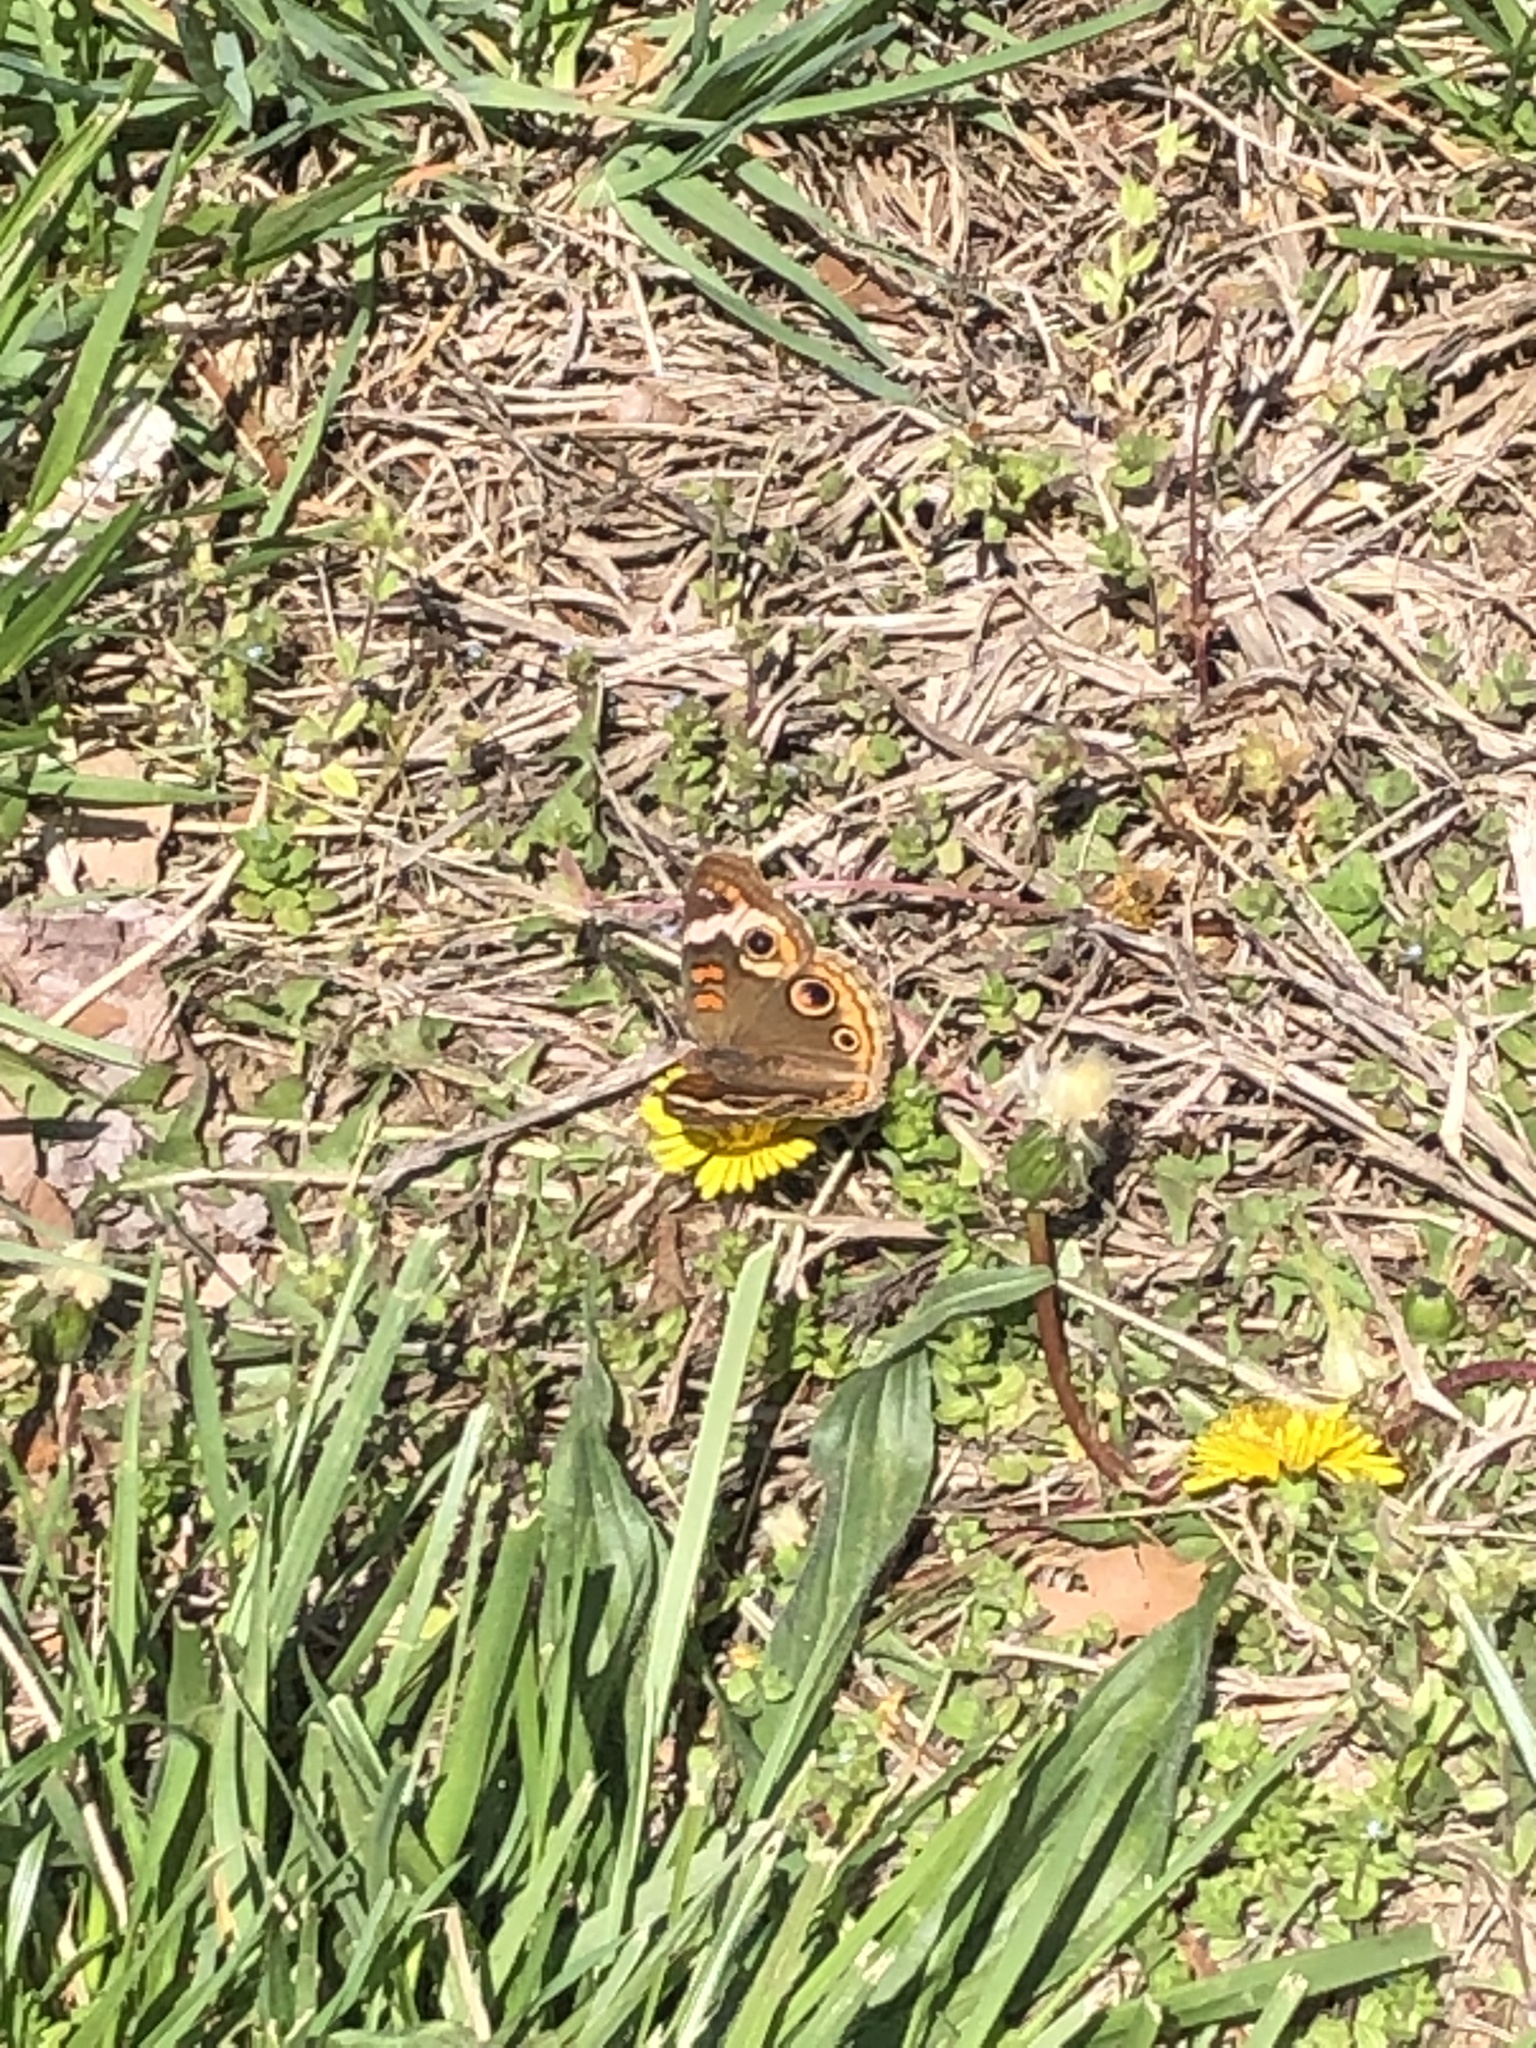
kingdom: Animalia
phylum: Arthropoda
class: Insecta
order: Lepidoptera
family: Nymphalidae
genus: Junonia
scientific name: Junonia coenia
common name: Common buckeye
